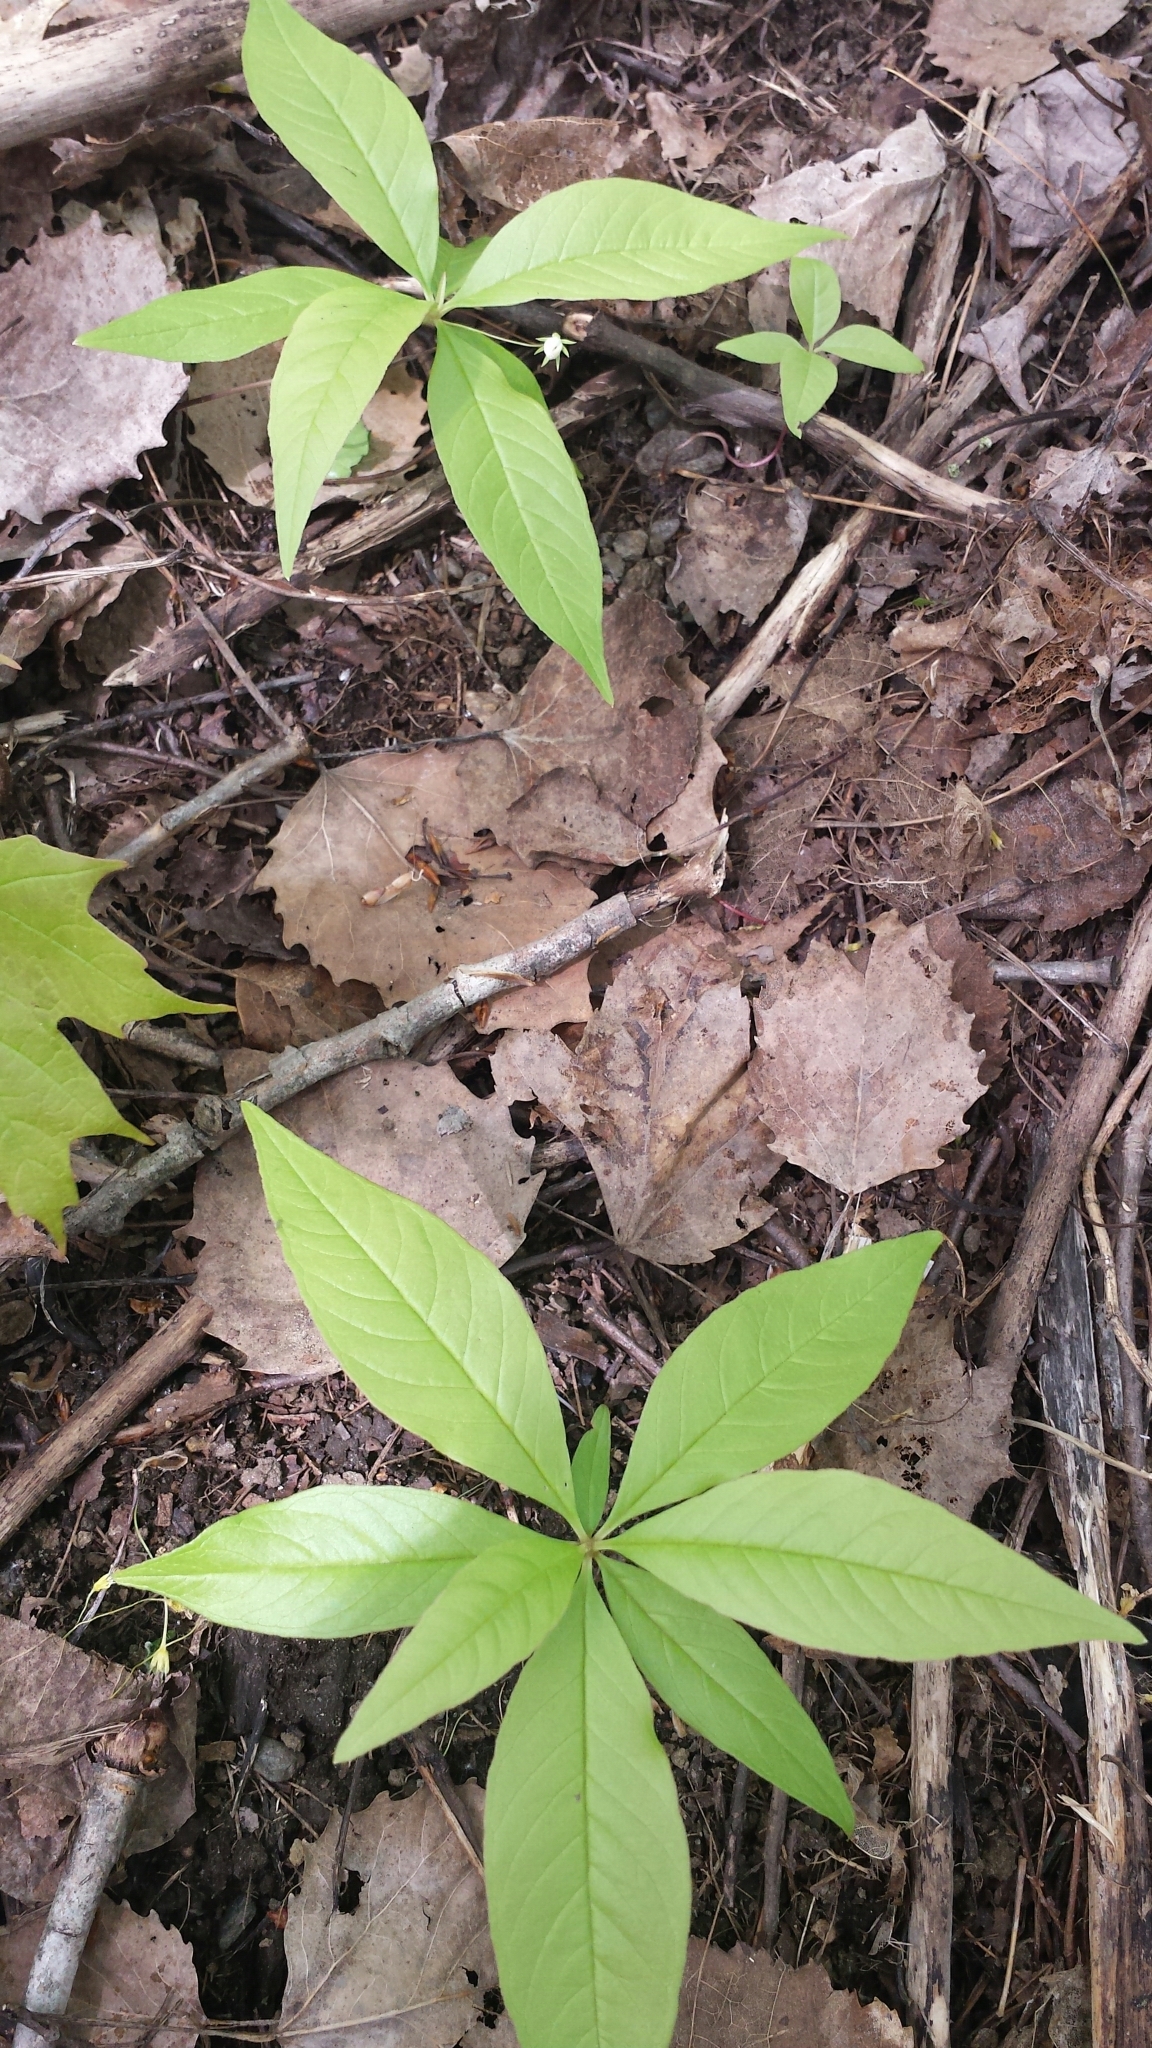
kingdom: Plantae
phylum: Tracheophyta
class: Magnoliopsida
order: Ericales
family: Primulaceae
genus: Lysimachia
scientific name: Lysimachia borealis
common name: American starflower
